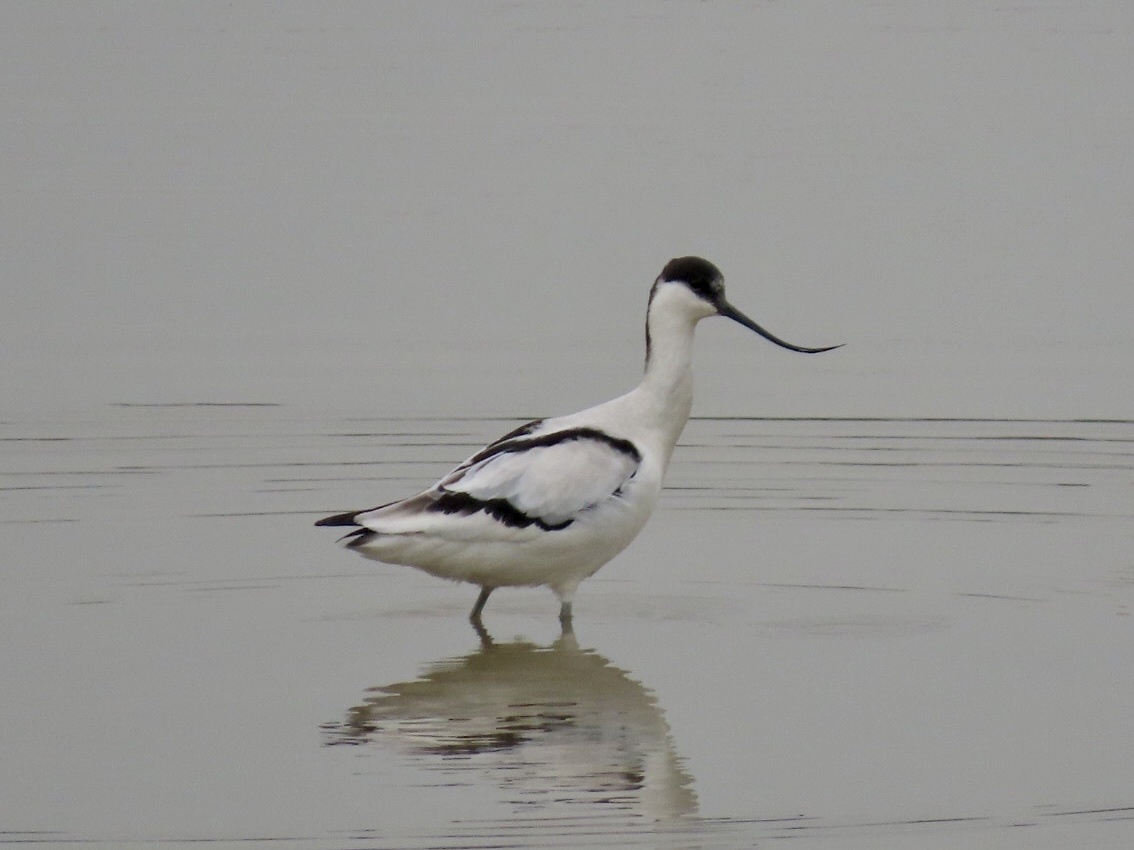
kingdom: Animalia
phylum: Chordata
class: Aves
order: Charadriiformes
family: Recurvirostridae
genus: Recurvirostra
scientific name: Recurvirostra avosetta
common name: Pied avocet
